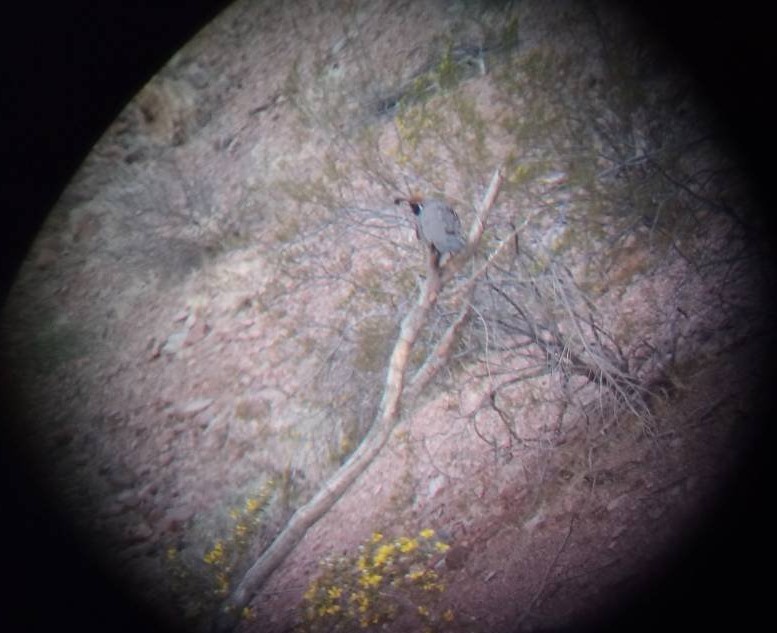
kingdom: Animalia
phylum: Chordata
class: Aves
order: Galliformes
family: Odontophoridae
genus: Callipepla
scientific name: Callipepla gambelii
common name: Gambel's quail
